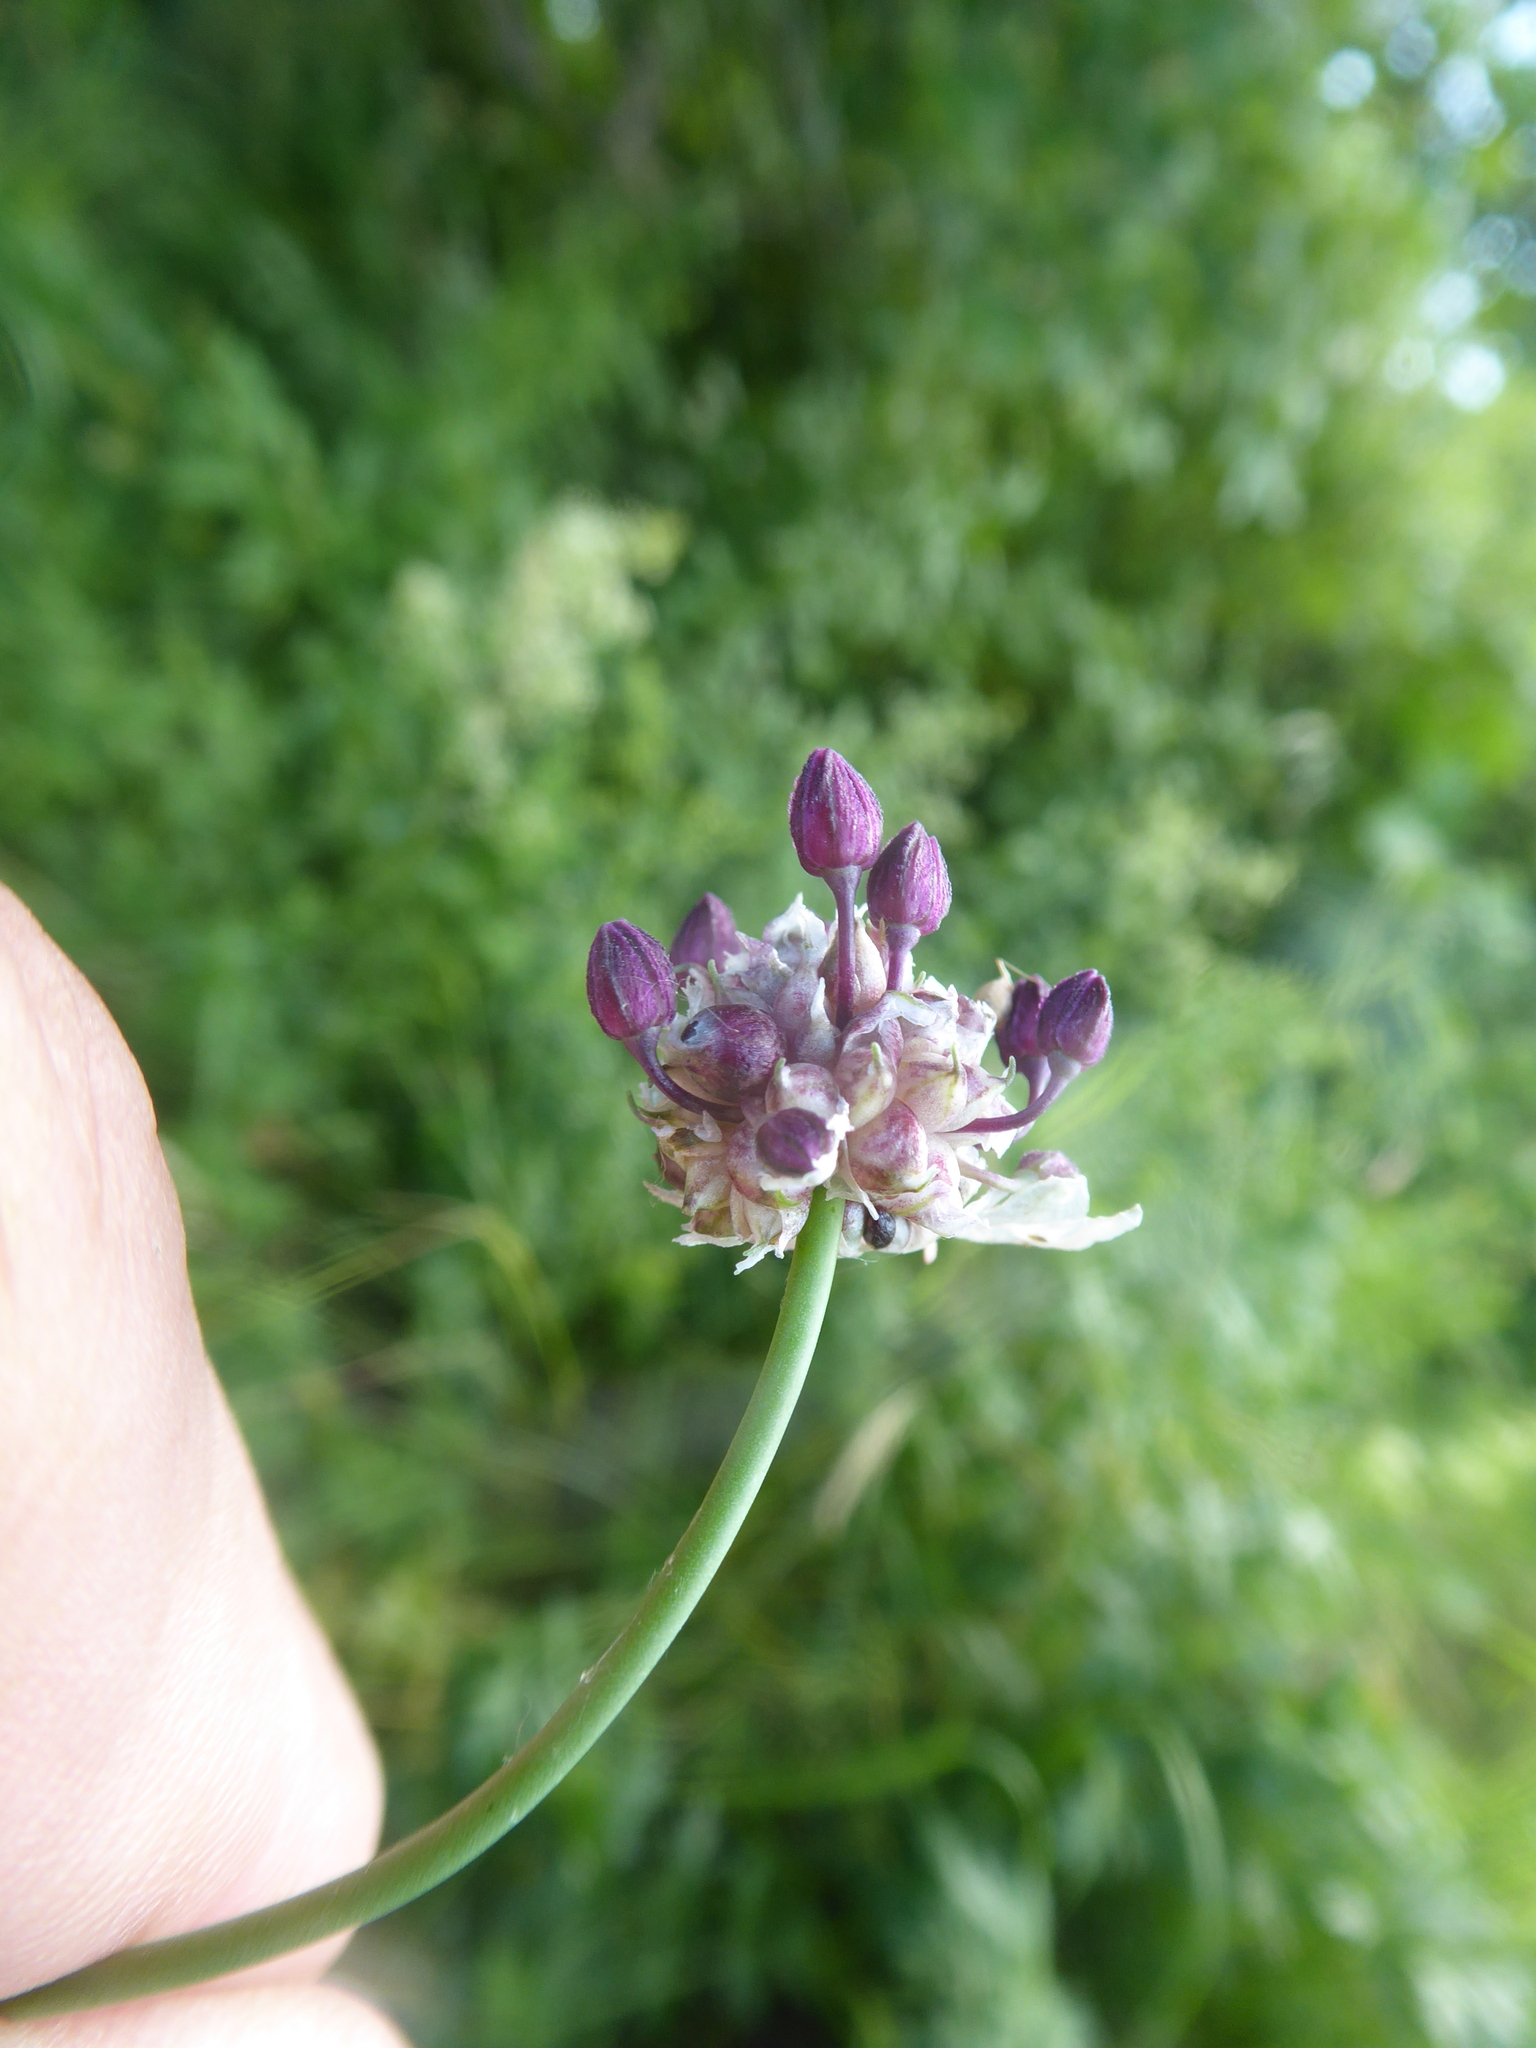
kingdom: Plantae
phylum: Tracheophyta
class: Liliopsida
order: Asparagales
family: Amaryllidaceae
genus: Allium
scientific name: Allium scorodoprasum
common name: Sand leek
